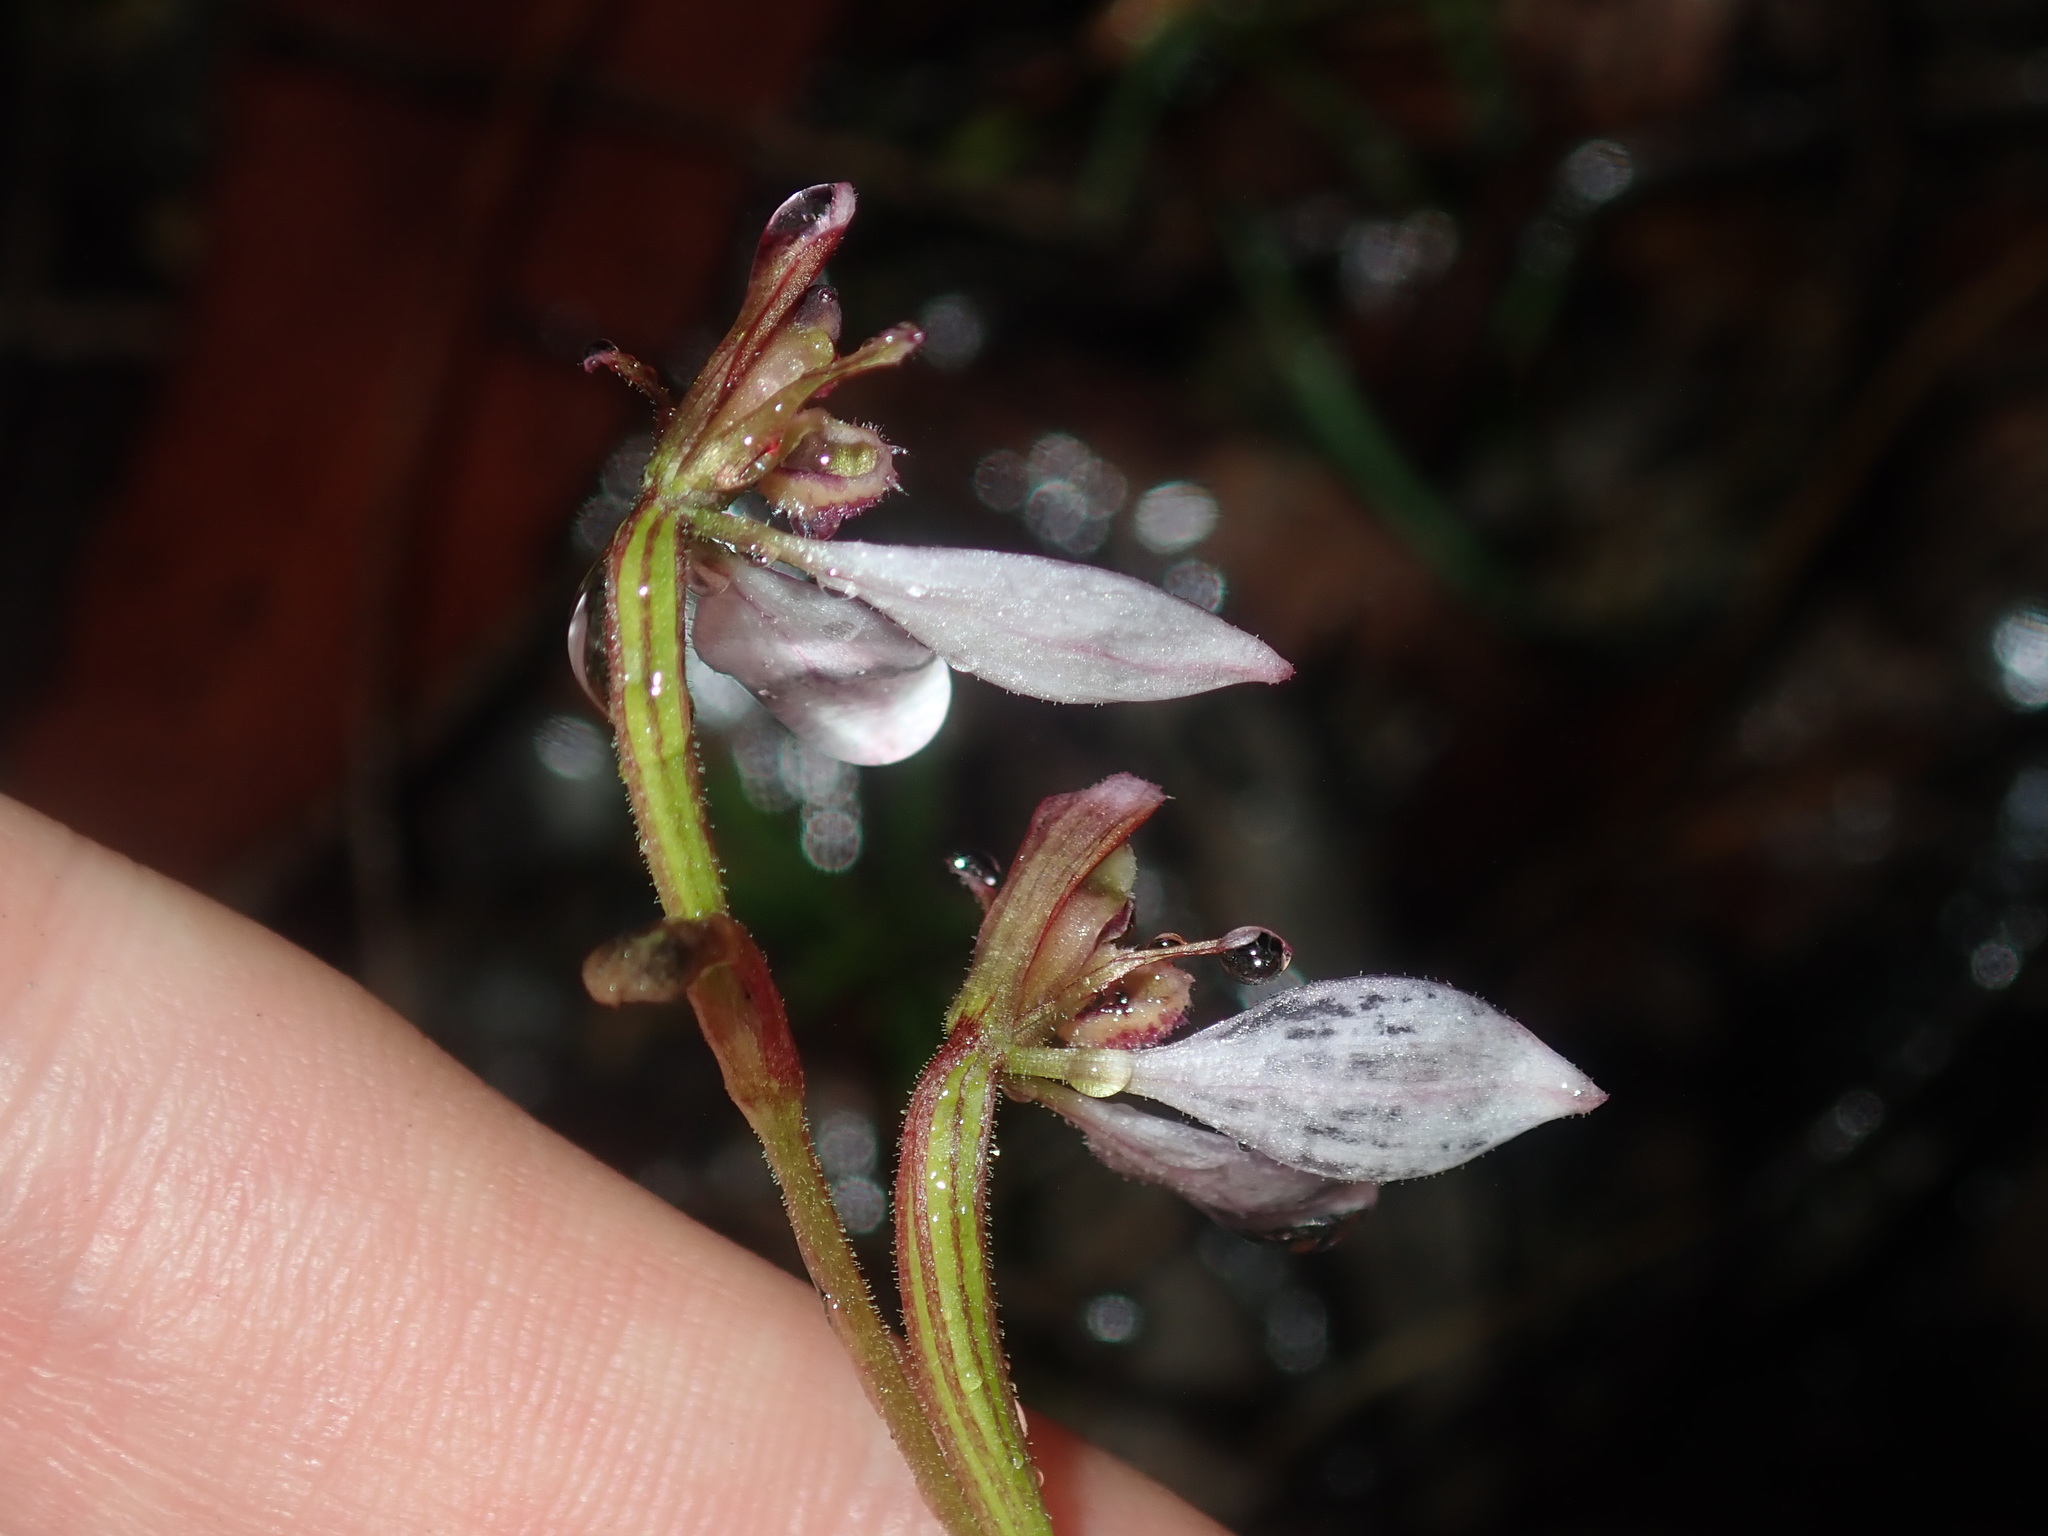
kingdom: Plantae
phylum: Tracheophyta
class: Liliopsida
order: Asparagales
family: Orchidaceae
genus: Eriochilus
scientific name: Eriochilus cucullatus
